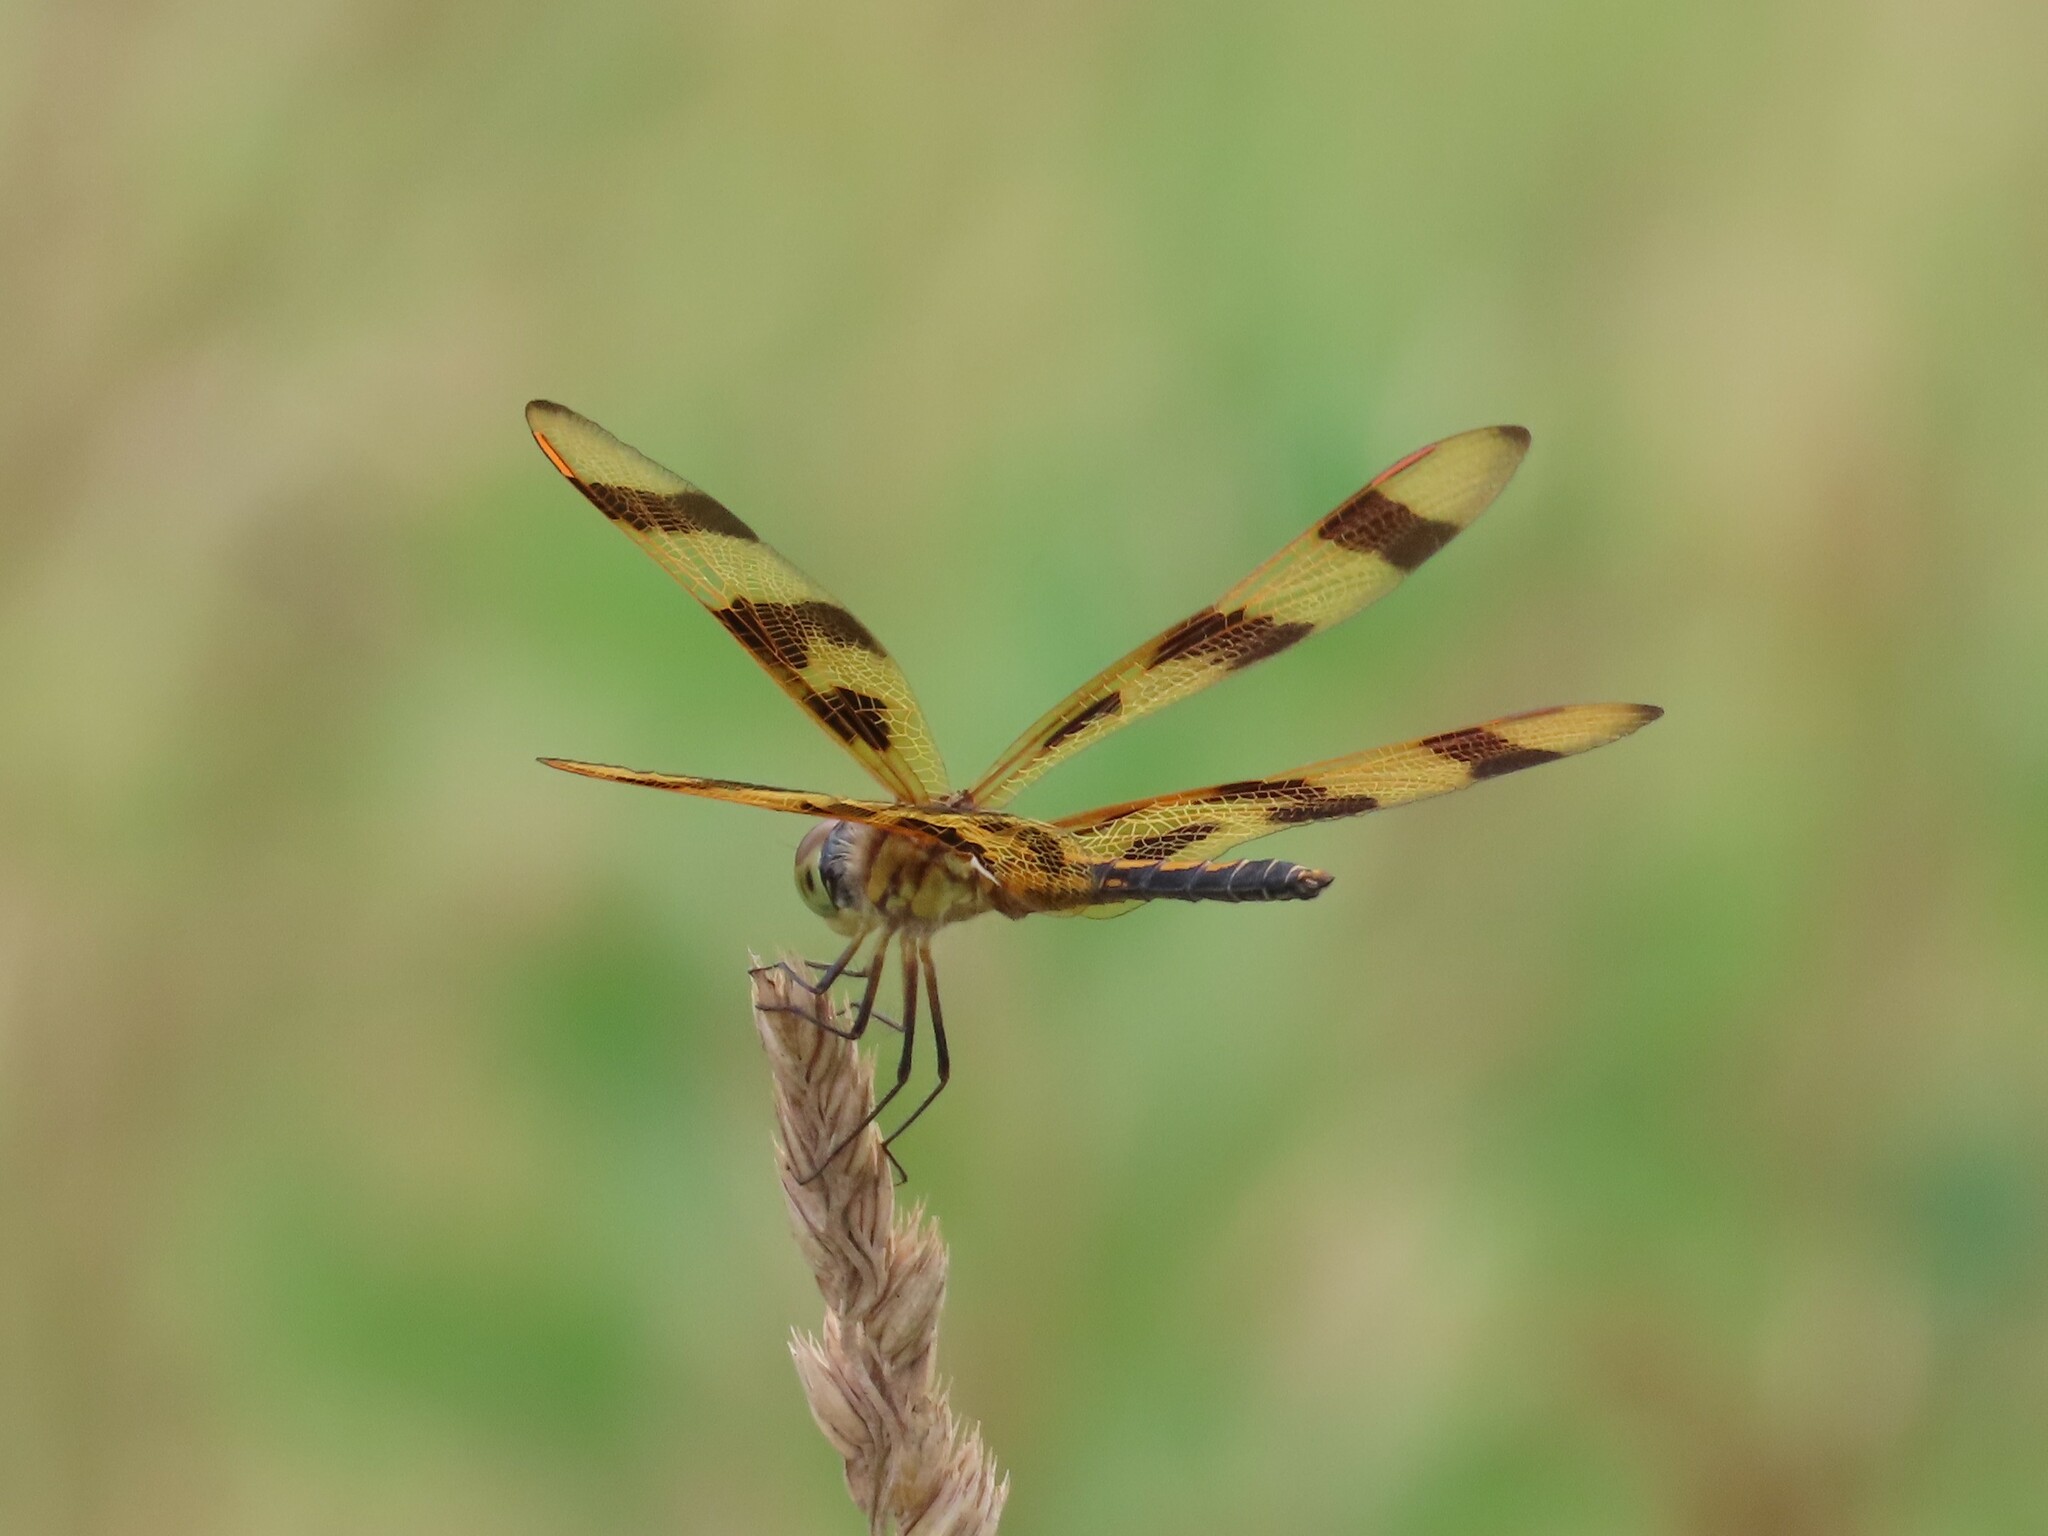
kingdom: Animalia
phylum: Arthropoda
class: Insecta
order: Odonata
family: Libellulidae
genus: Celithemis
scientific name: Celithemis eponina
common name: Halloween pennant
